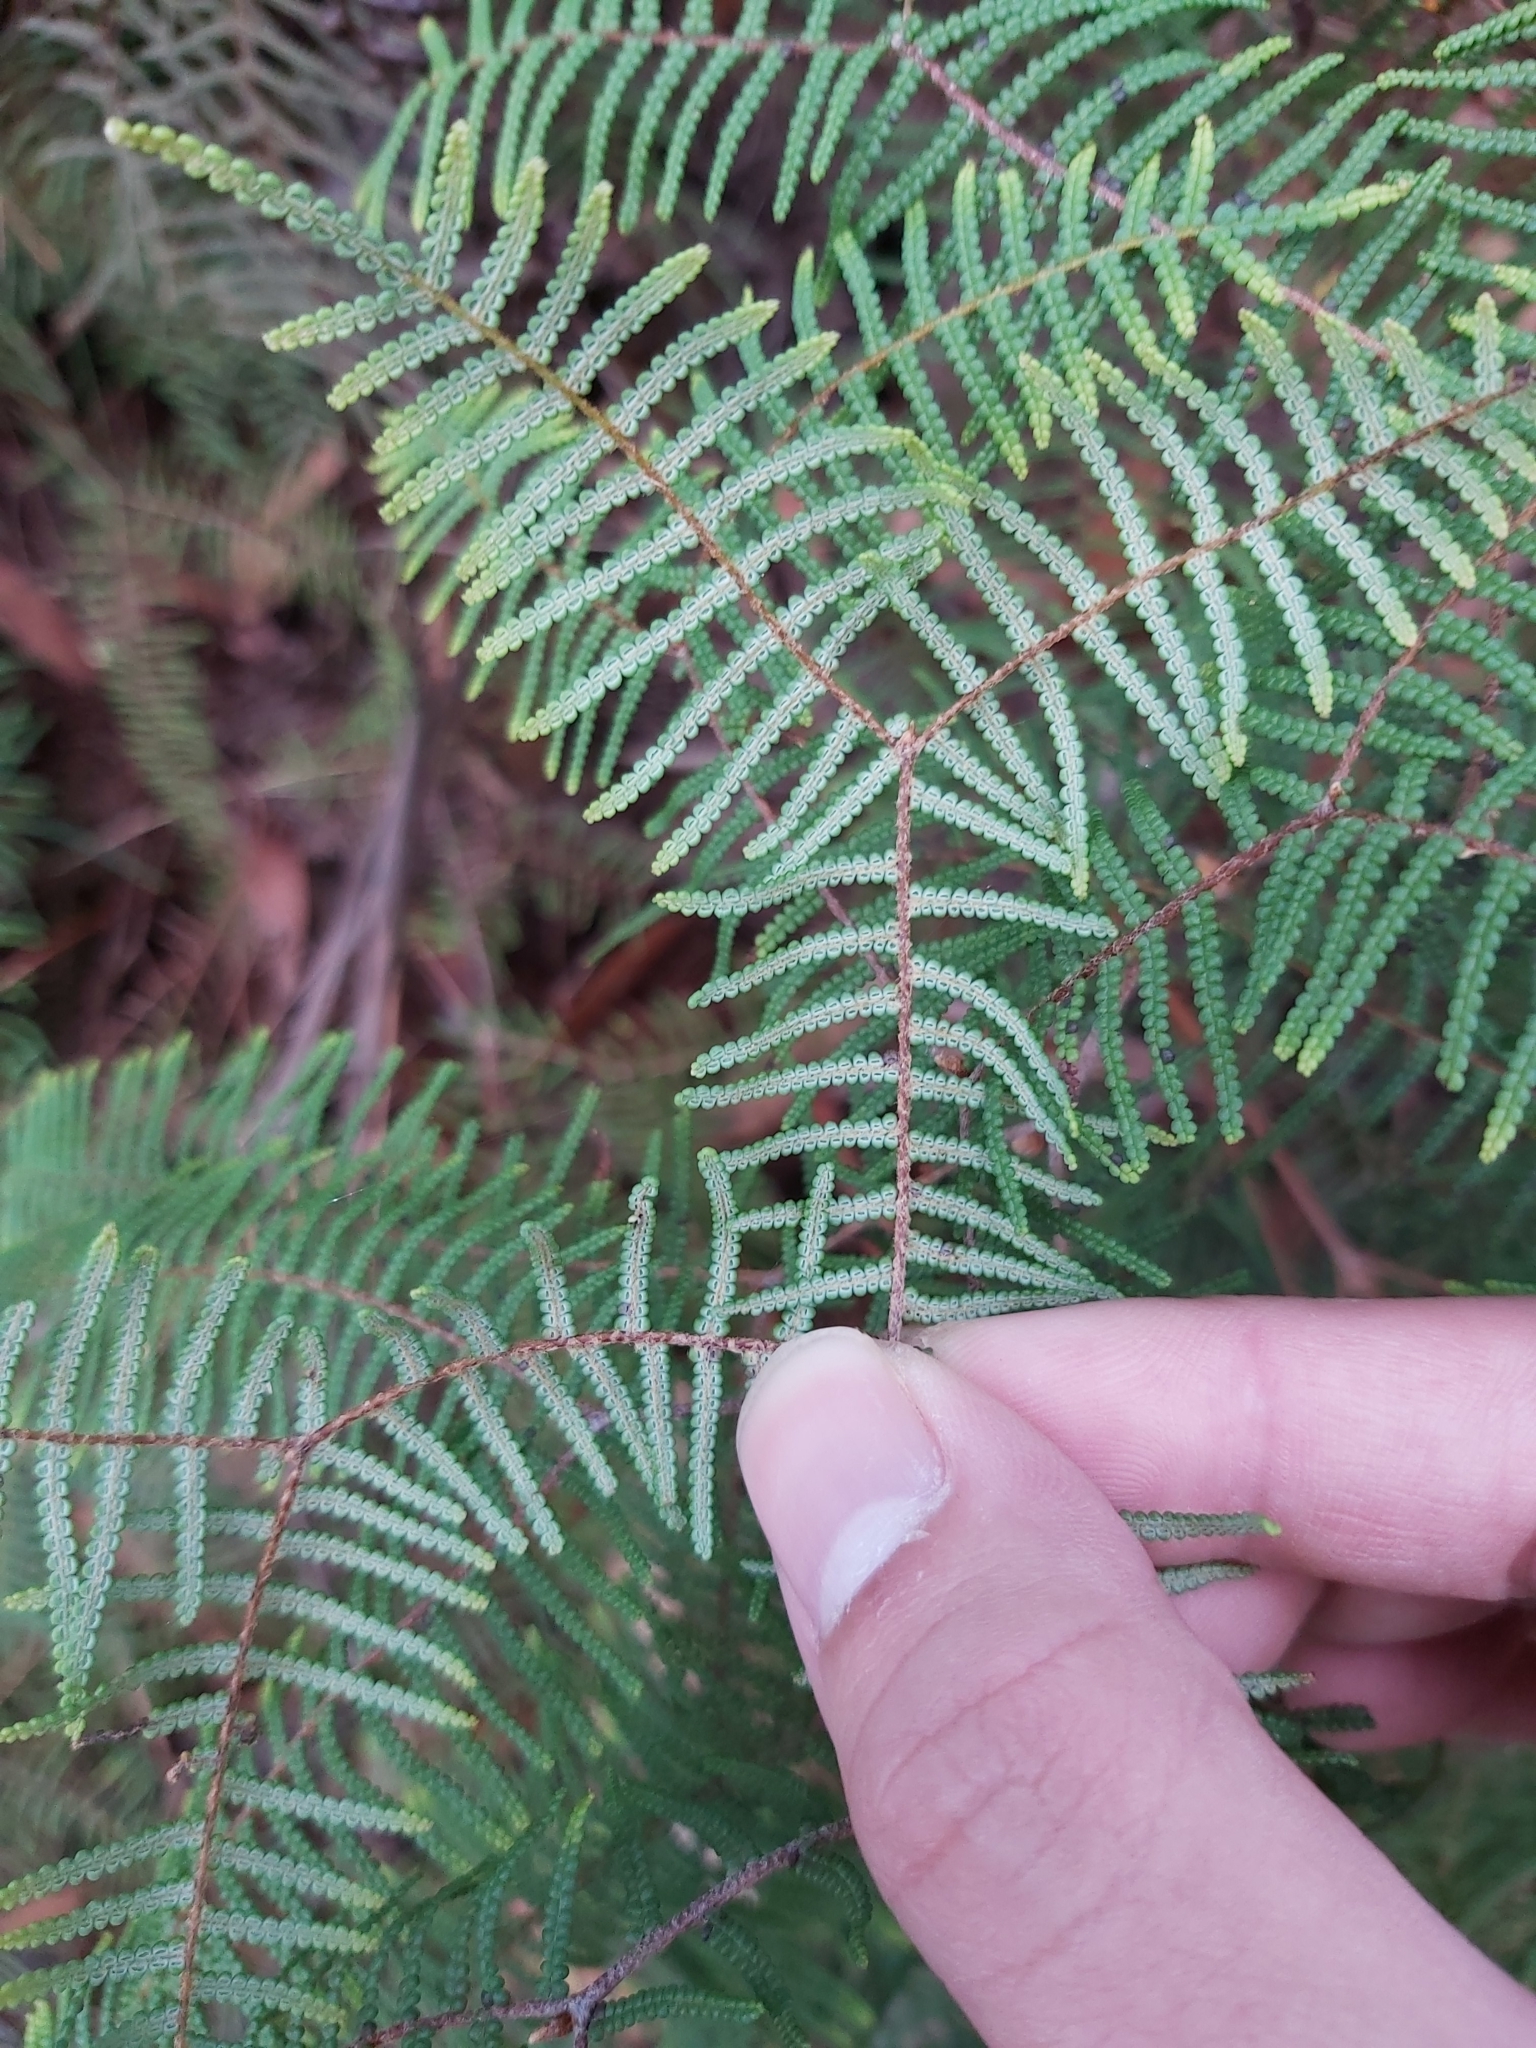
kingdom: Plantae
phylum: Tracheophyta
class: Polypodiopsida
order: Gleicheniales
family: Gleicheniaceae
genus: Gleichenia
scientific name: Gleichenia dicarpa
